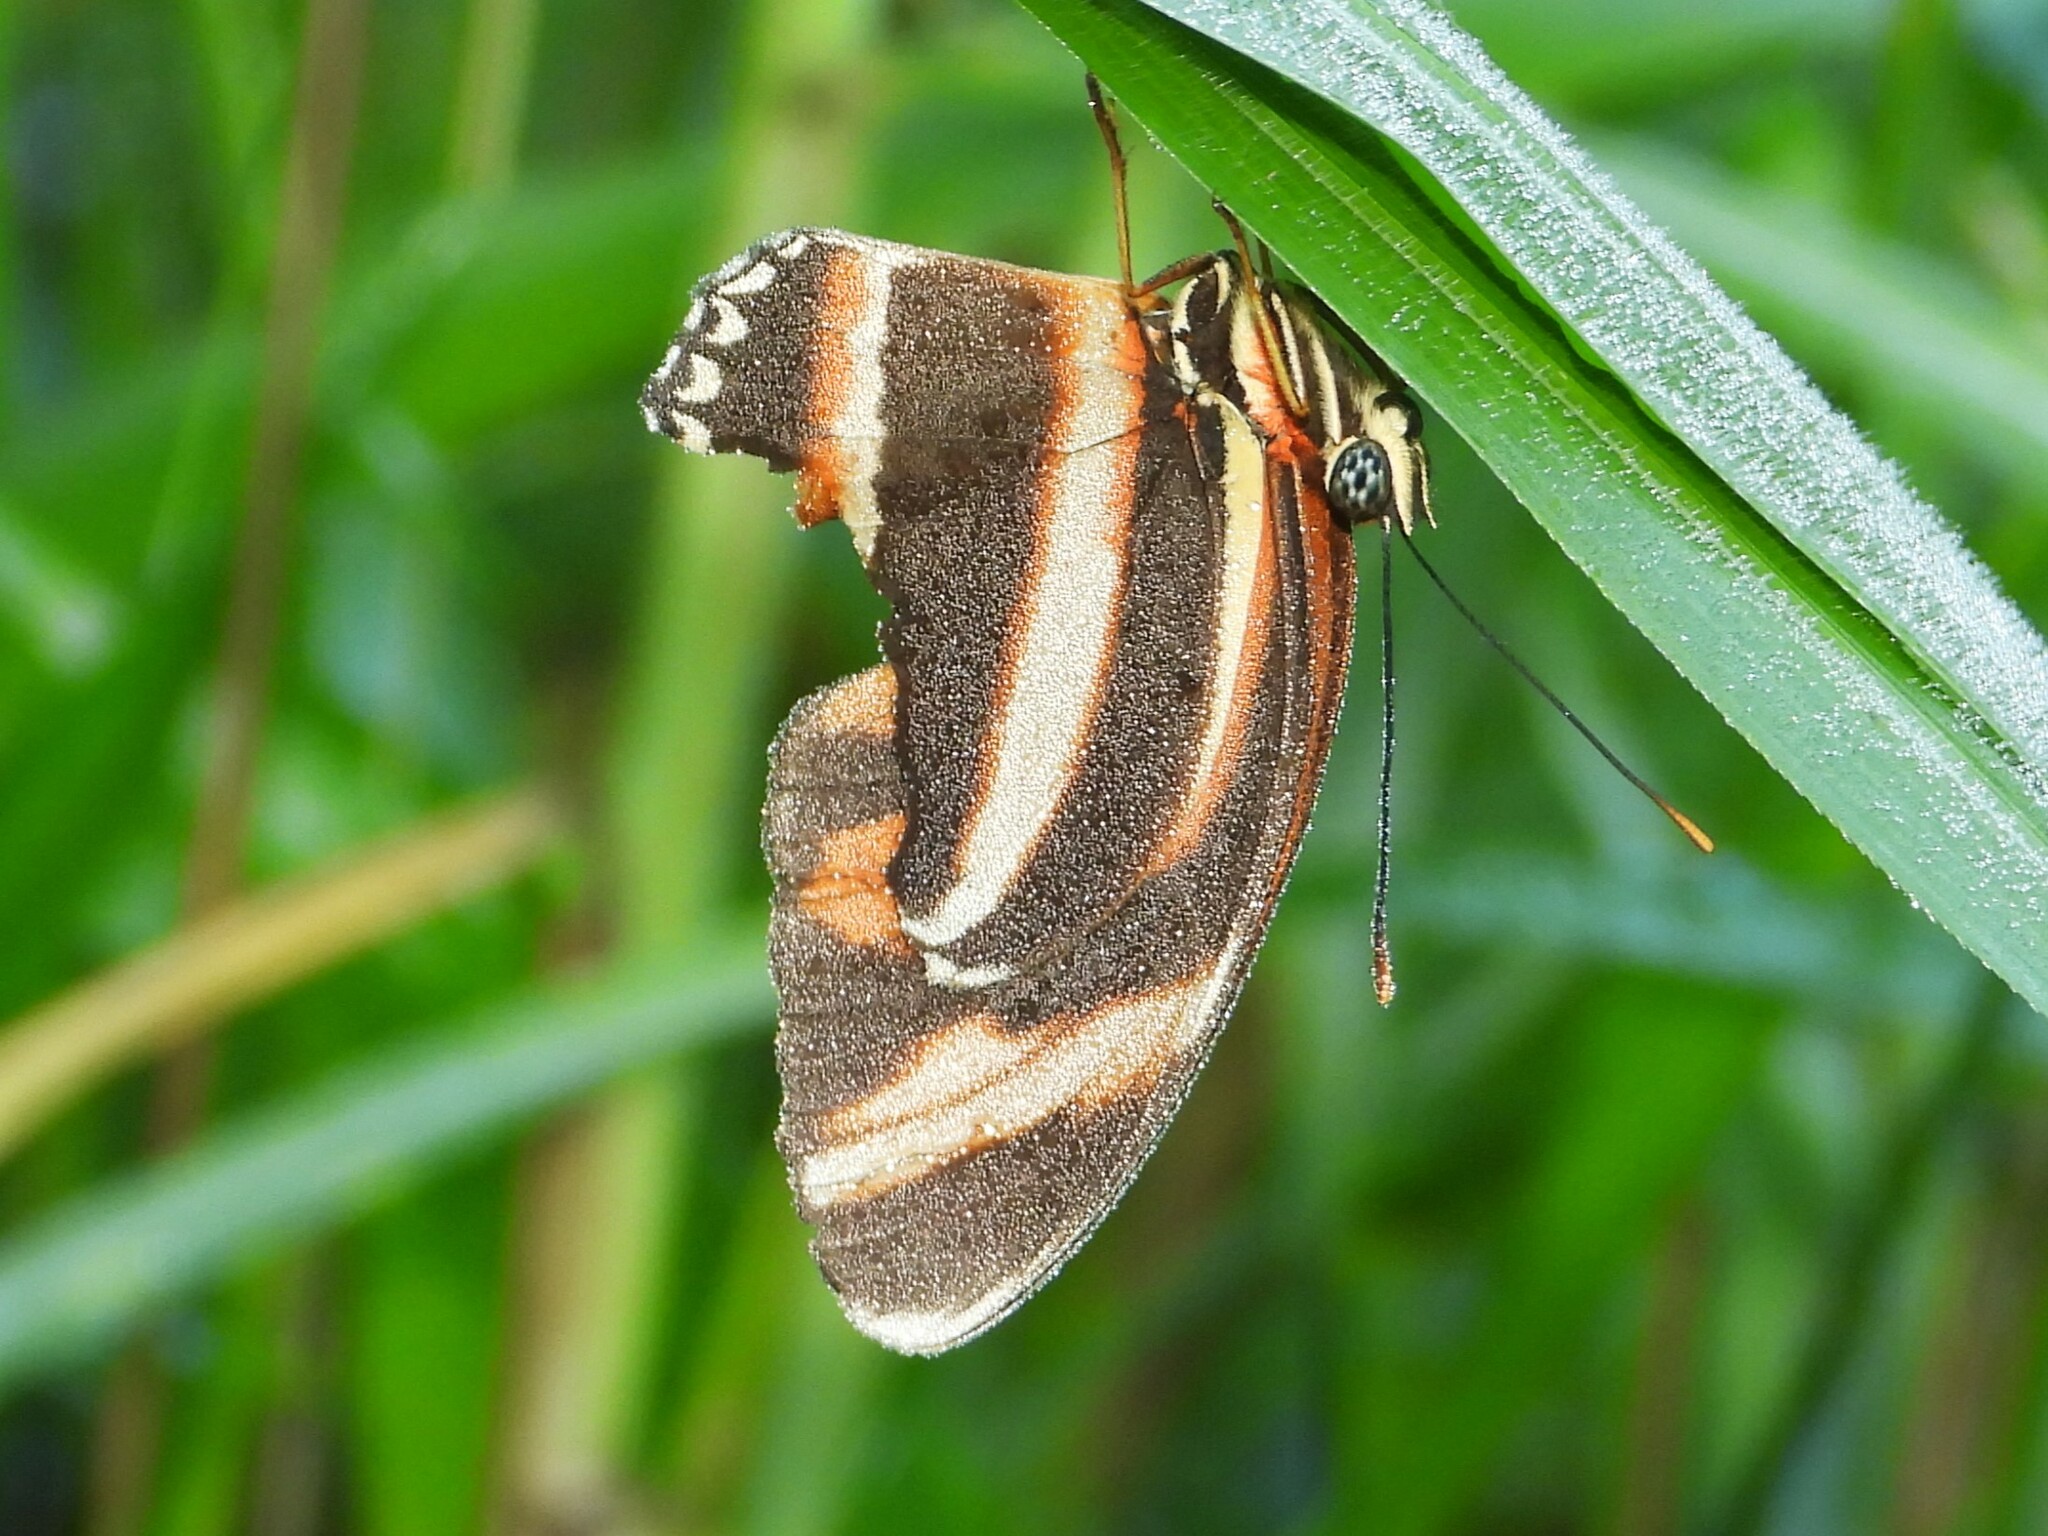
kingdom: Animalia
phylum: Arthropoda
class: Insecta
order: Lepidoptera
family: Nymphalidae
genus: Dryadula
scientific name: Dryadula phaetusa
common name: Banded orange heliconian
